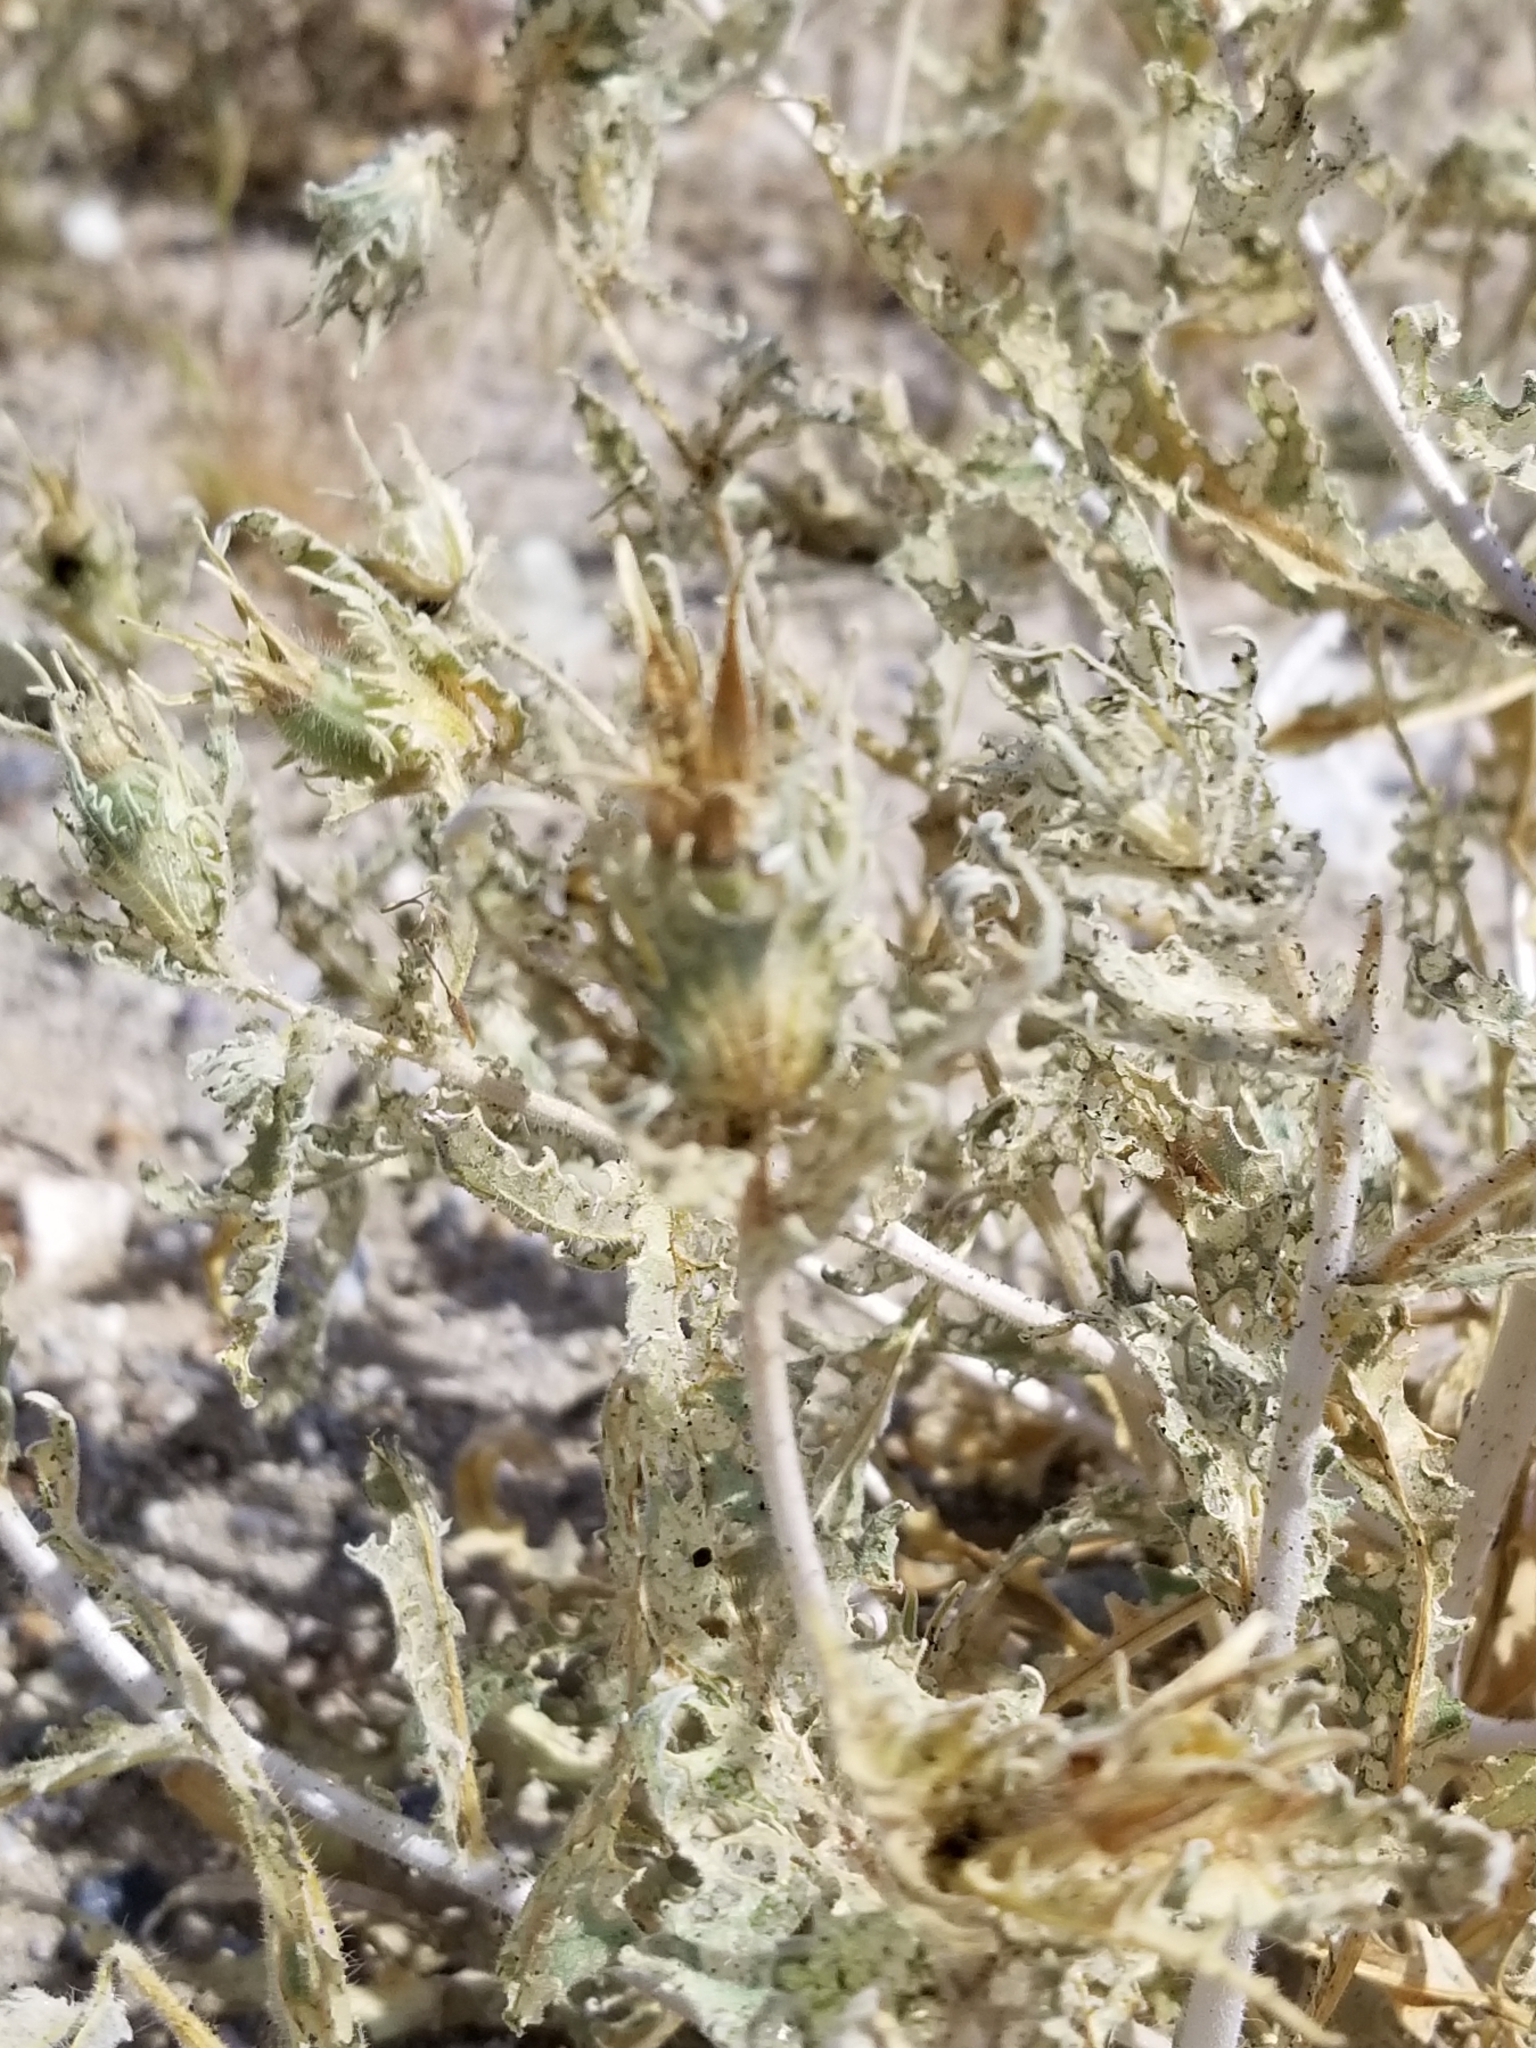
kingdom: Plantae
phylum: Tracheophyta
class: Magnoliopsida
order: Cornales
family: Loasaceae
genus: Mentzelia
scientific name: Mentzelia involucrata
